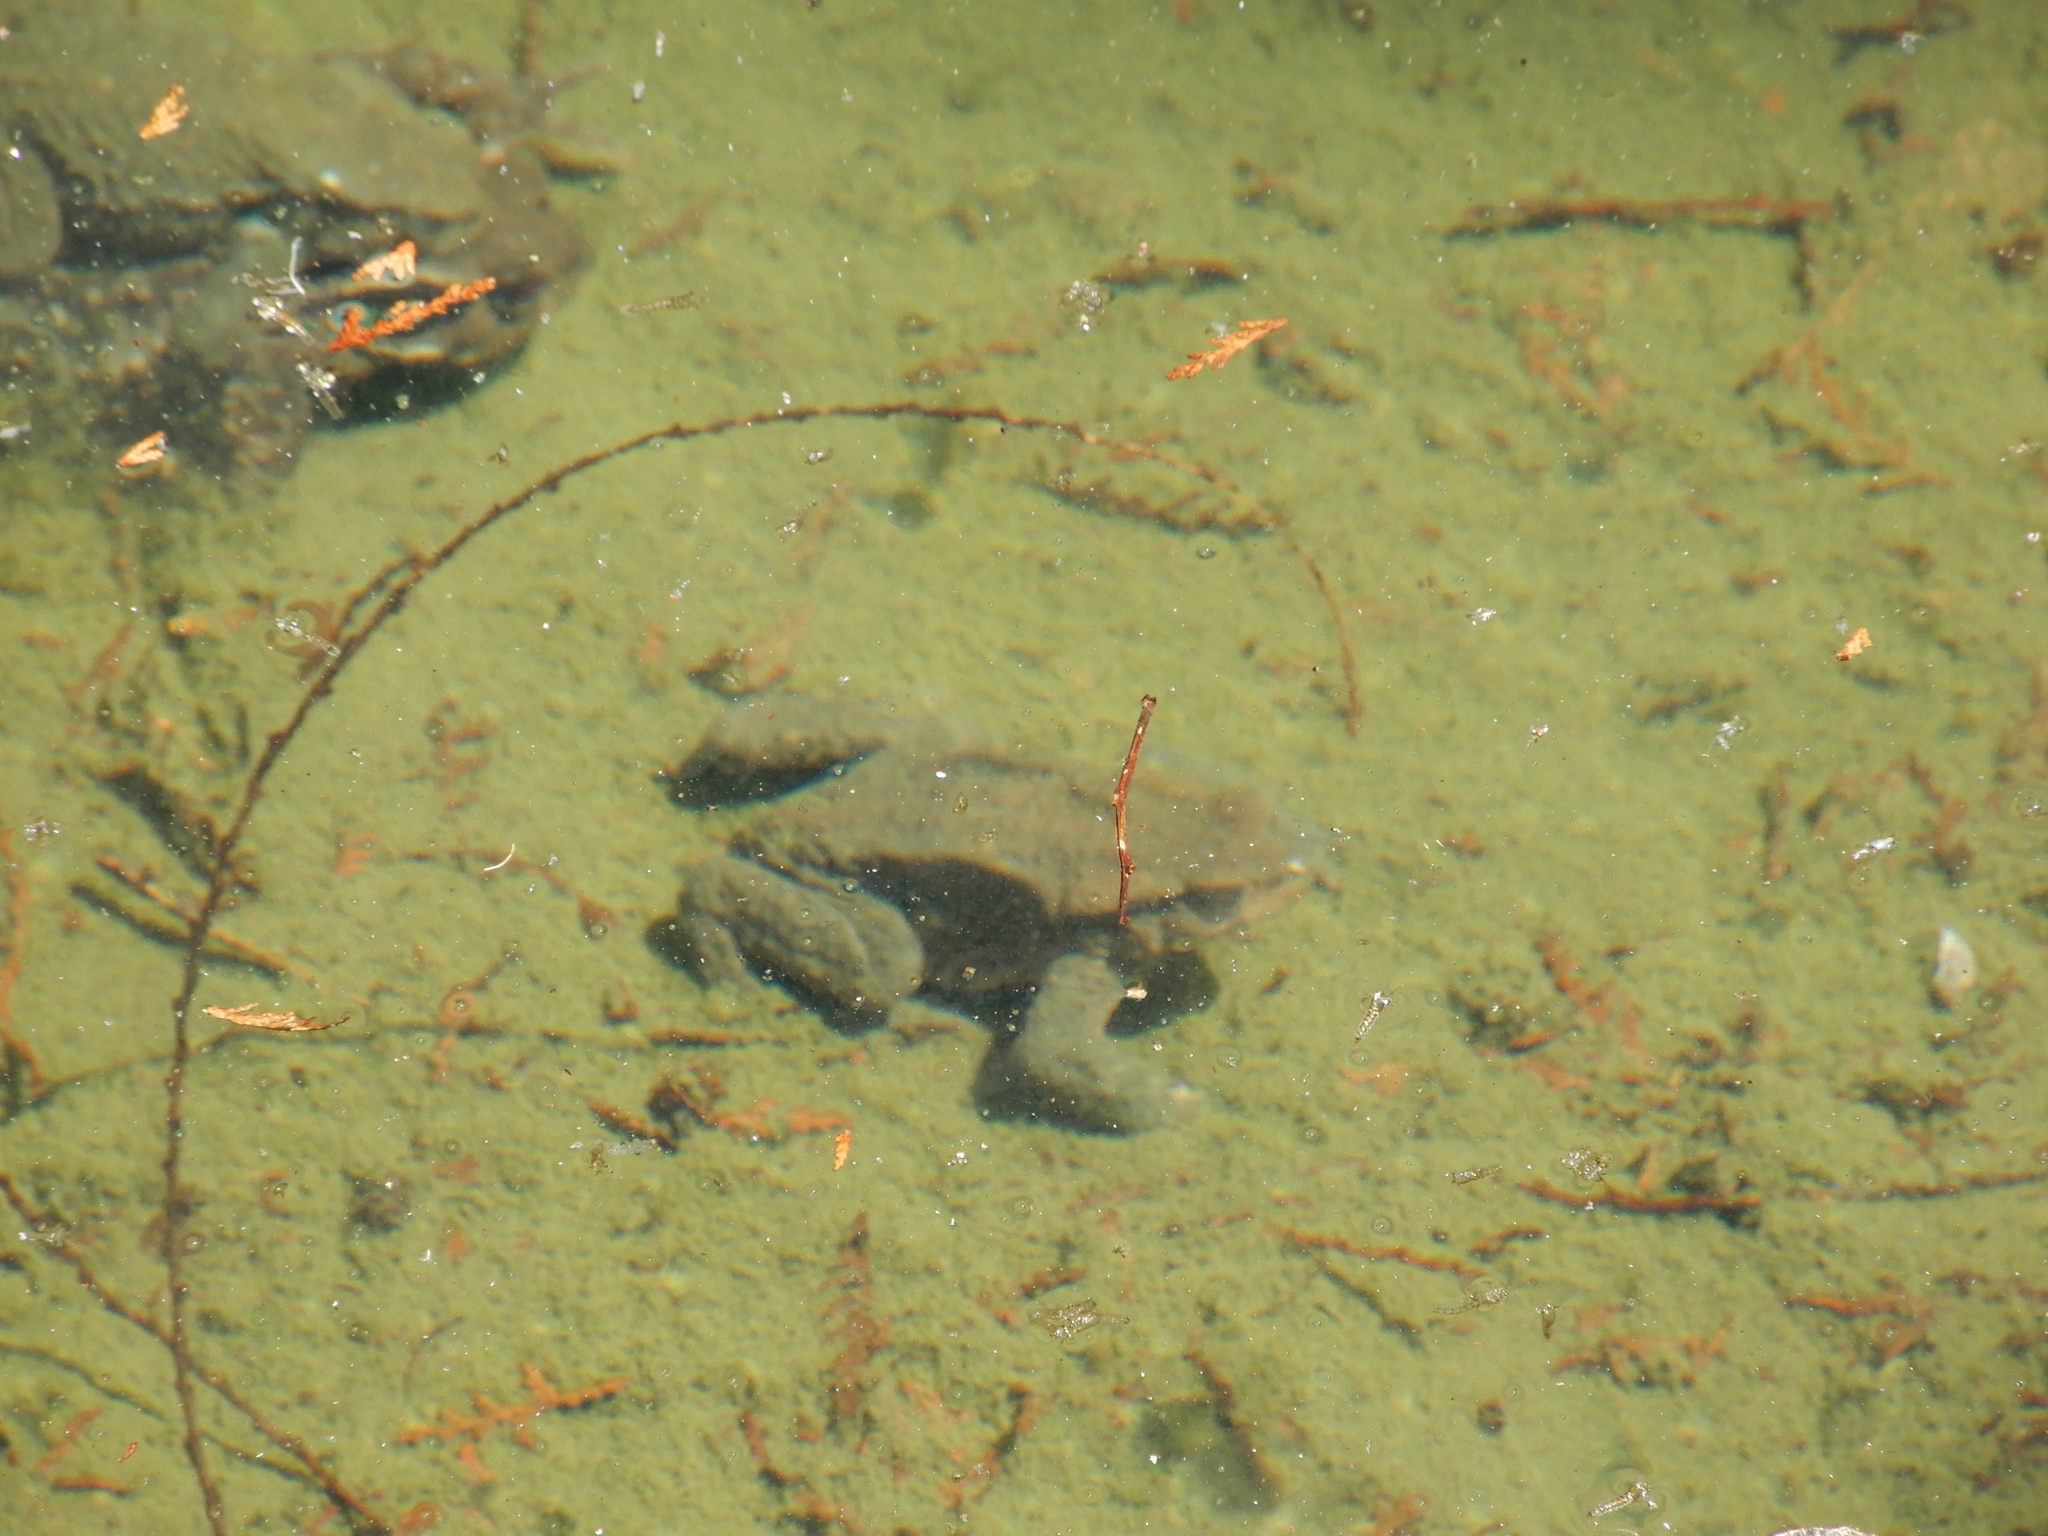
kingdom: Animalia
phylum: Chordata
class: Amphibia
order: Anura
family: Bufonidae
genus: Bufo
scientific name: Bufo bankorensis
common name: Bankor toad
